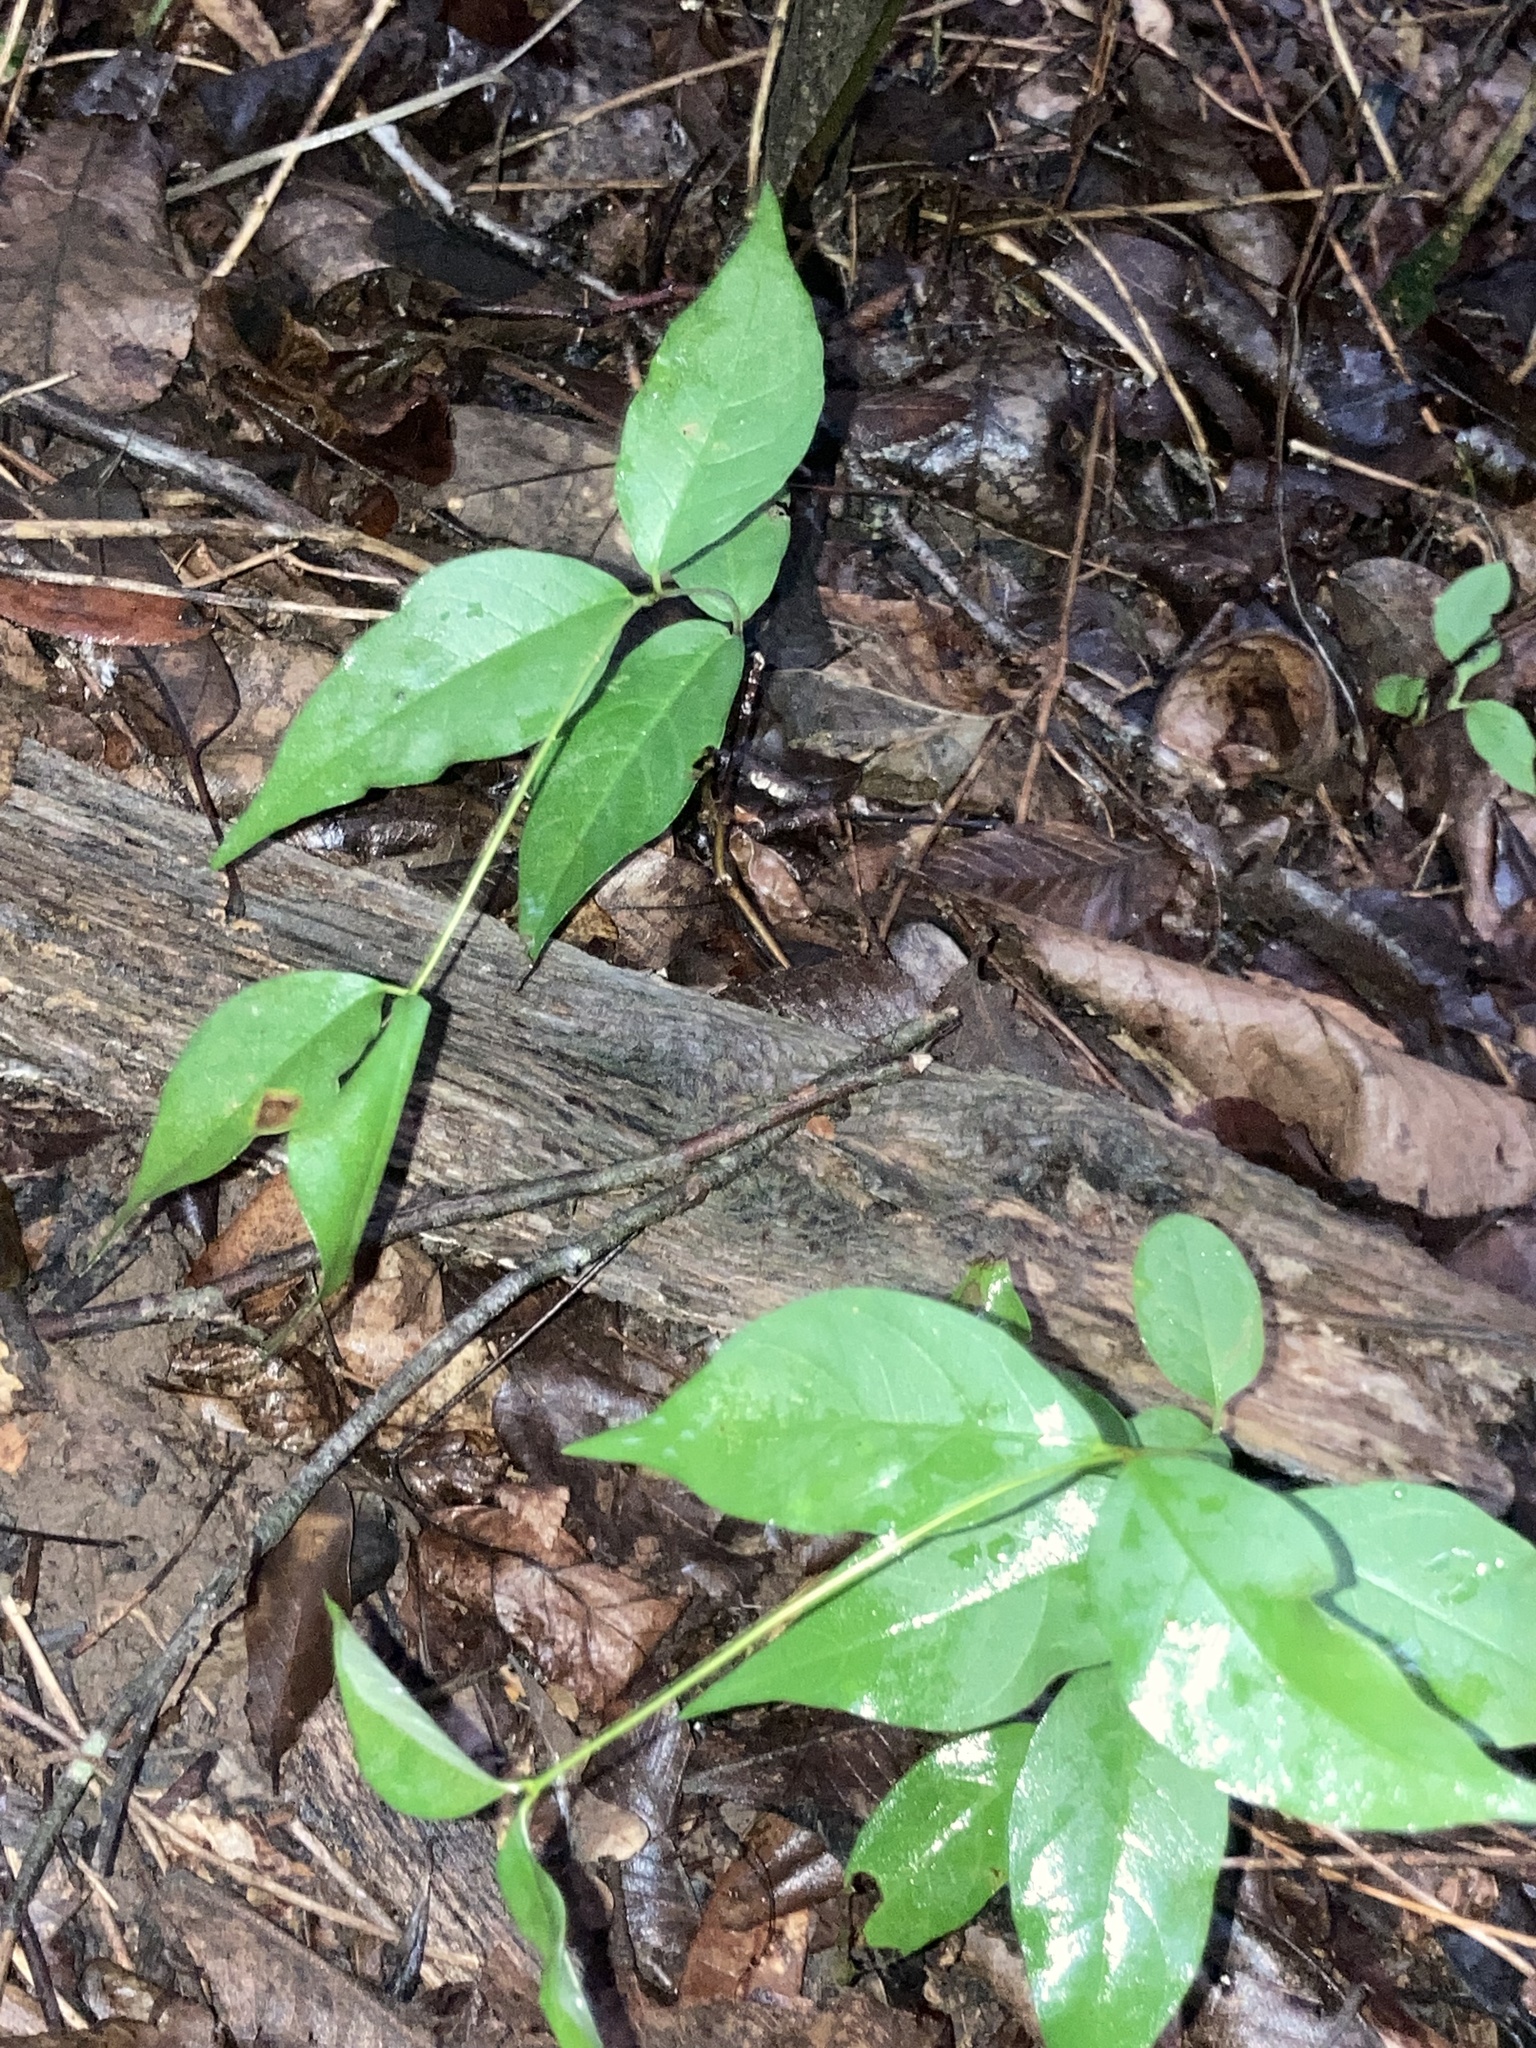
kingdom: Plantae
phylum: Tracheophyta
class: Magnoliopsida
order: Gentianales
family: Apocynaceae
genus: Thyrsanthella
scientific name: Thyrsanthella difformis
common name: Climbing dogbane
